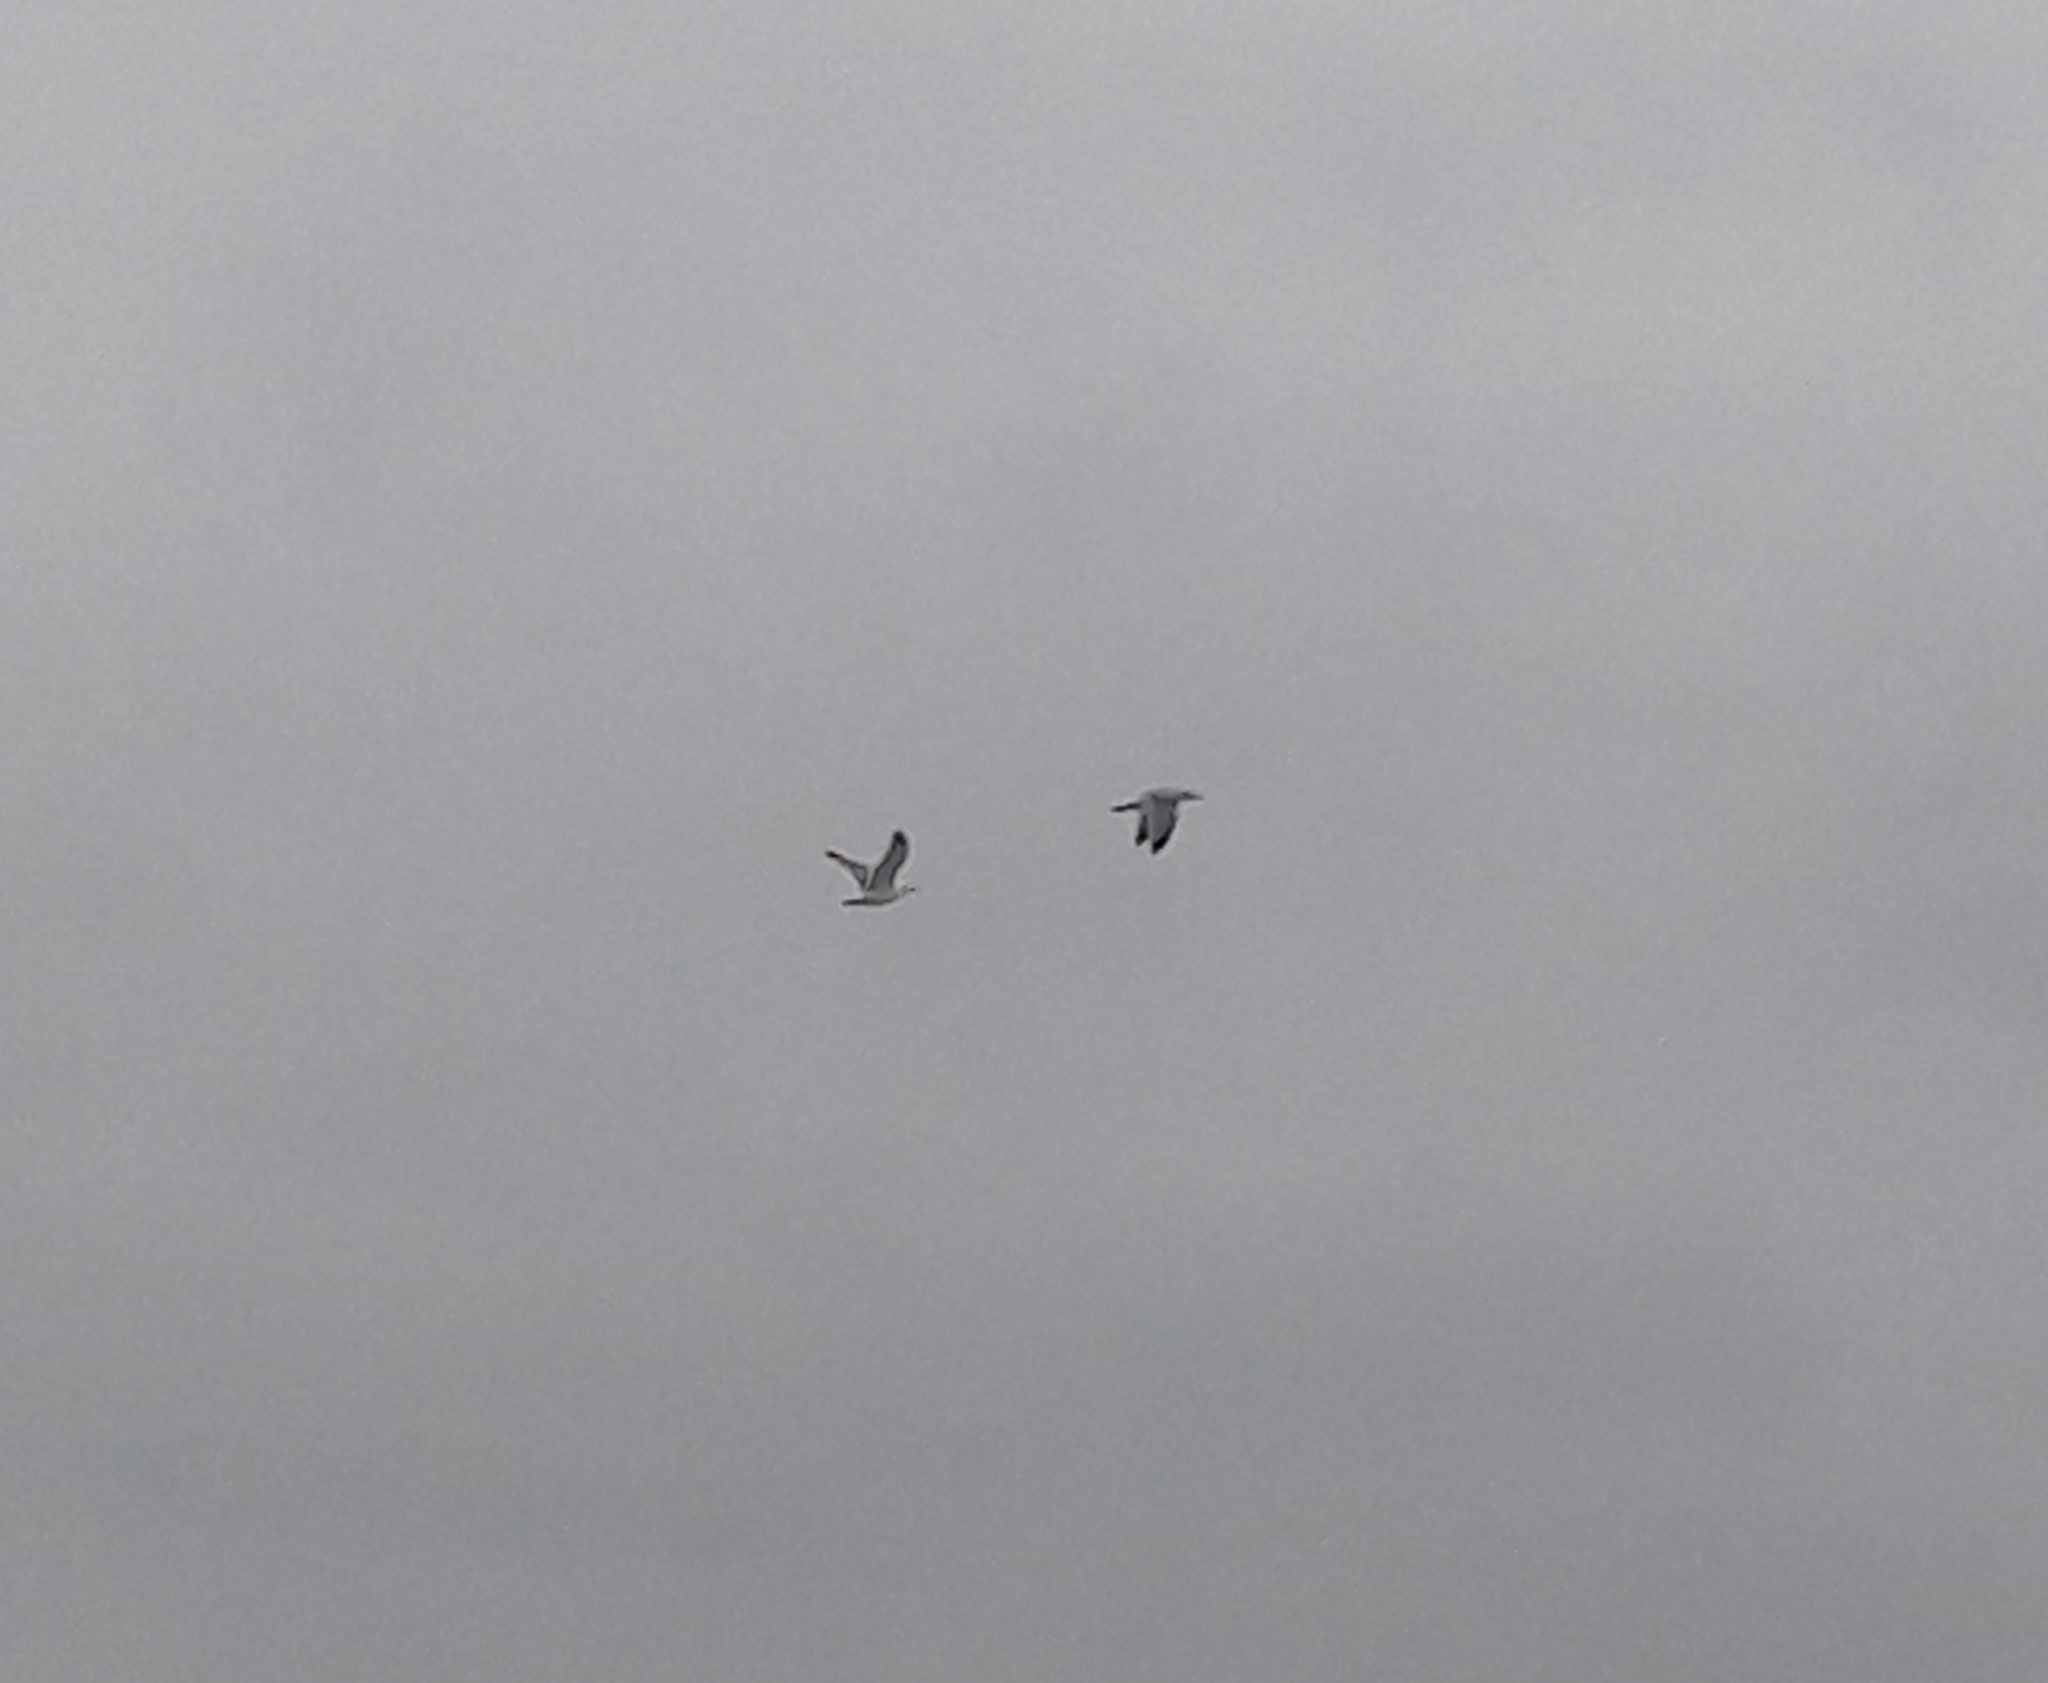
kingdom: Animalia
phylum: Chordata
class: Aves
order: Charadriiformes
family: Laridae
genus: Larus
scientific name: Larus argentatus
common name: Herring gull
